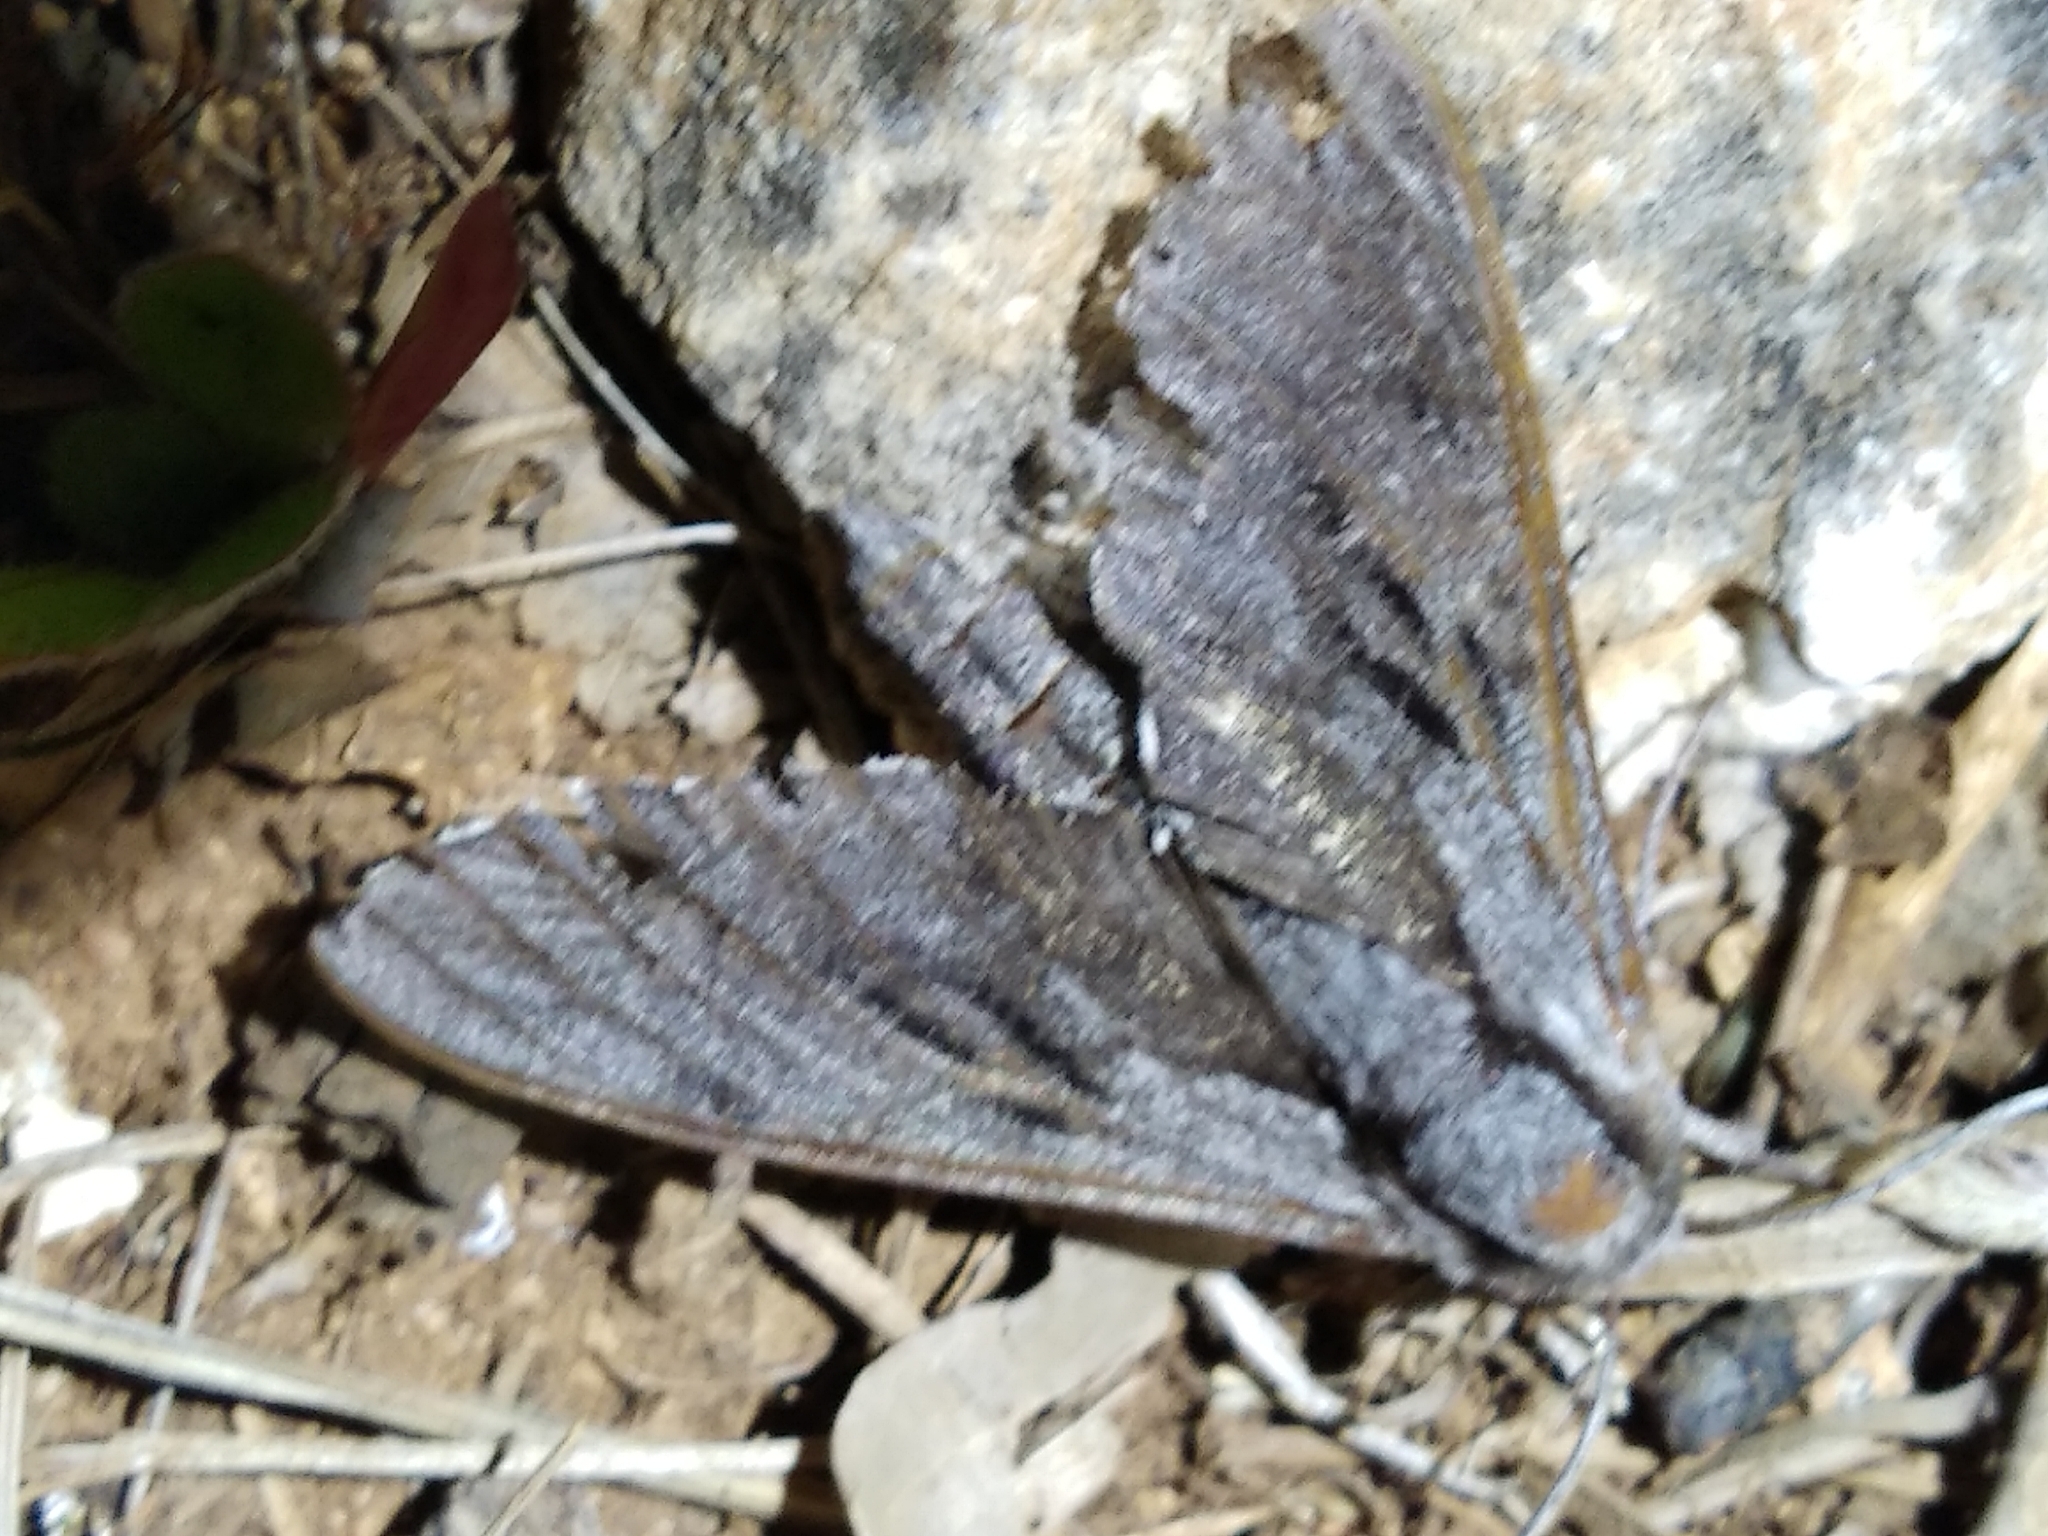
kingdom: Animalia
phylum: Arthropoda
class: Insecta
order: Lepidoptera
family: Sphingidae
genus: Sphinx
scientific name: Sphinx pinastri
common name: Pine hawk-moth
